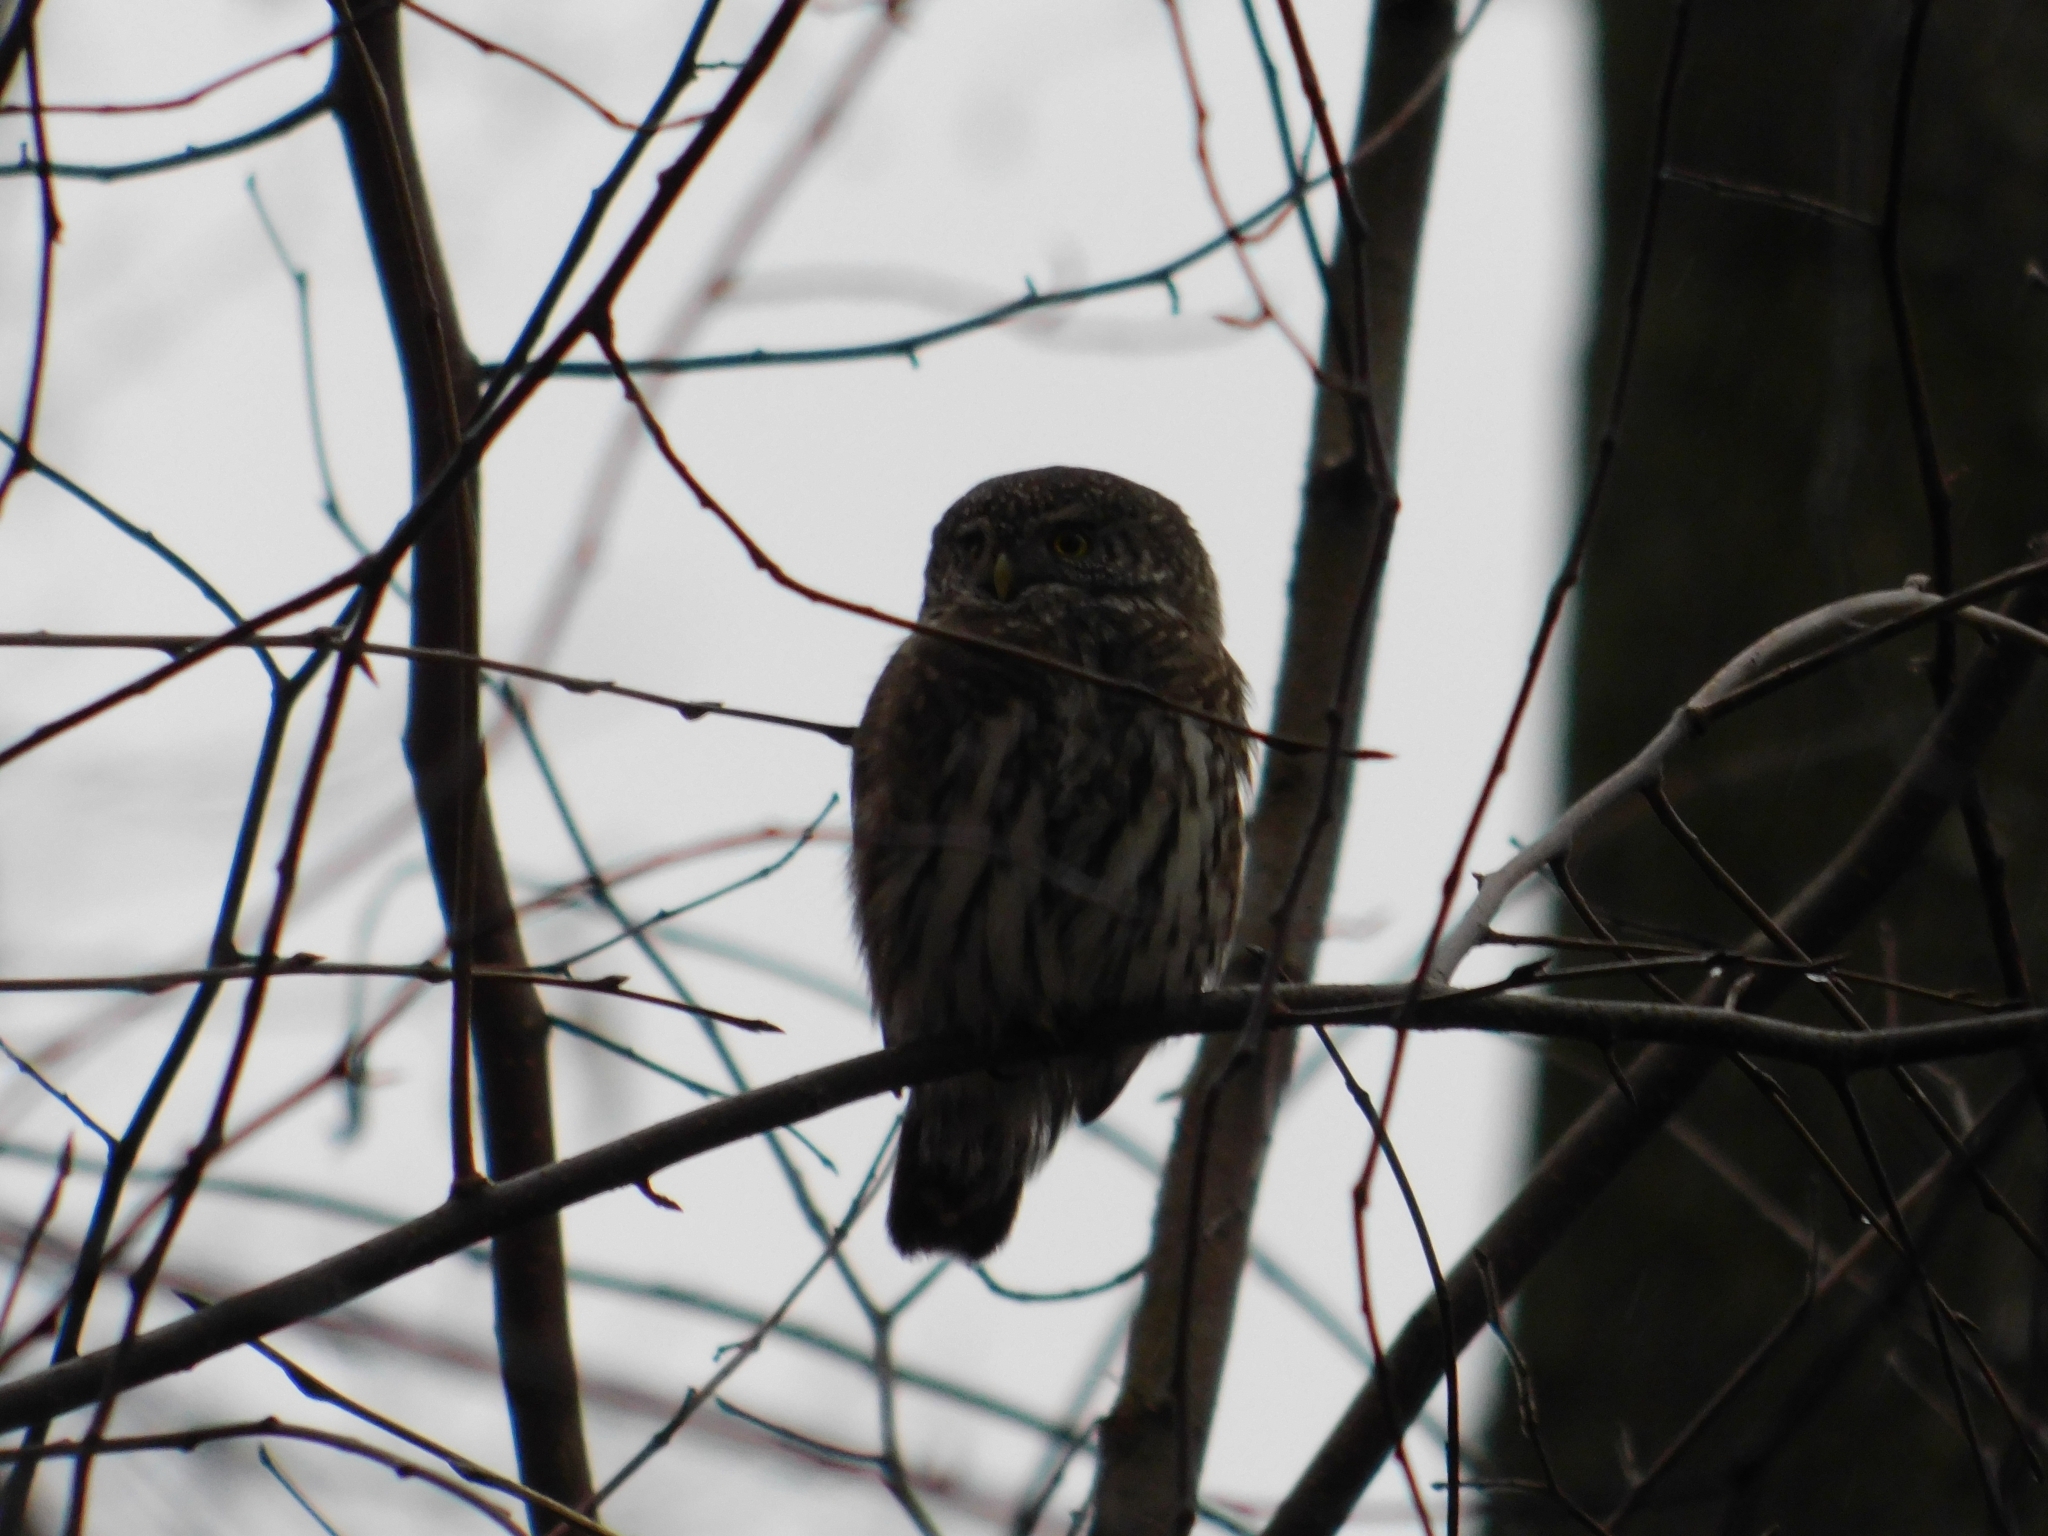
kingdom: Animalia
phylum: Chordata
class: Aves
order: Strigiformes
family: Strigidae
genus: Glaucidium
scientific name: Glaucidium passerinum
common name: Eurasian pygmy owl
